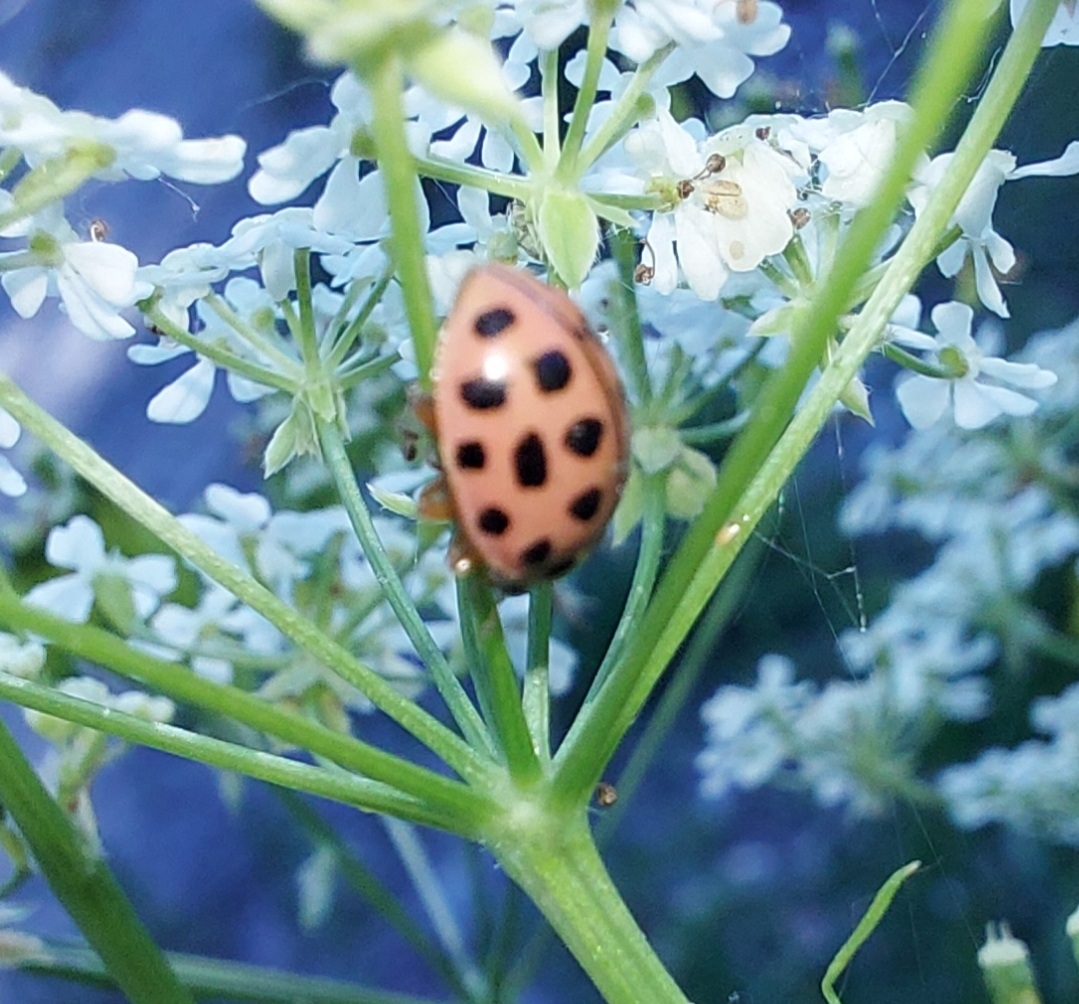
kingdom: Animalia
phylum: Arthropoda
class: Insecta
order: Coleoptera
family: Coccinellidae
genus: Bulaea
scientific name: Bulaea lichatschovi
